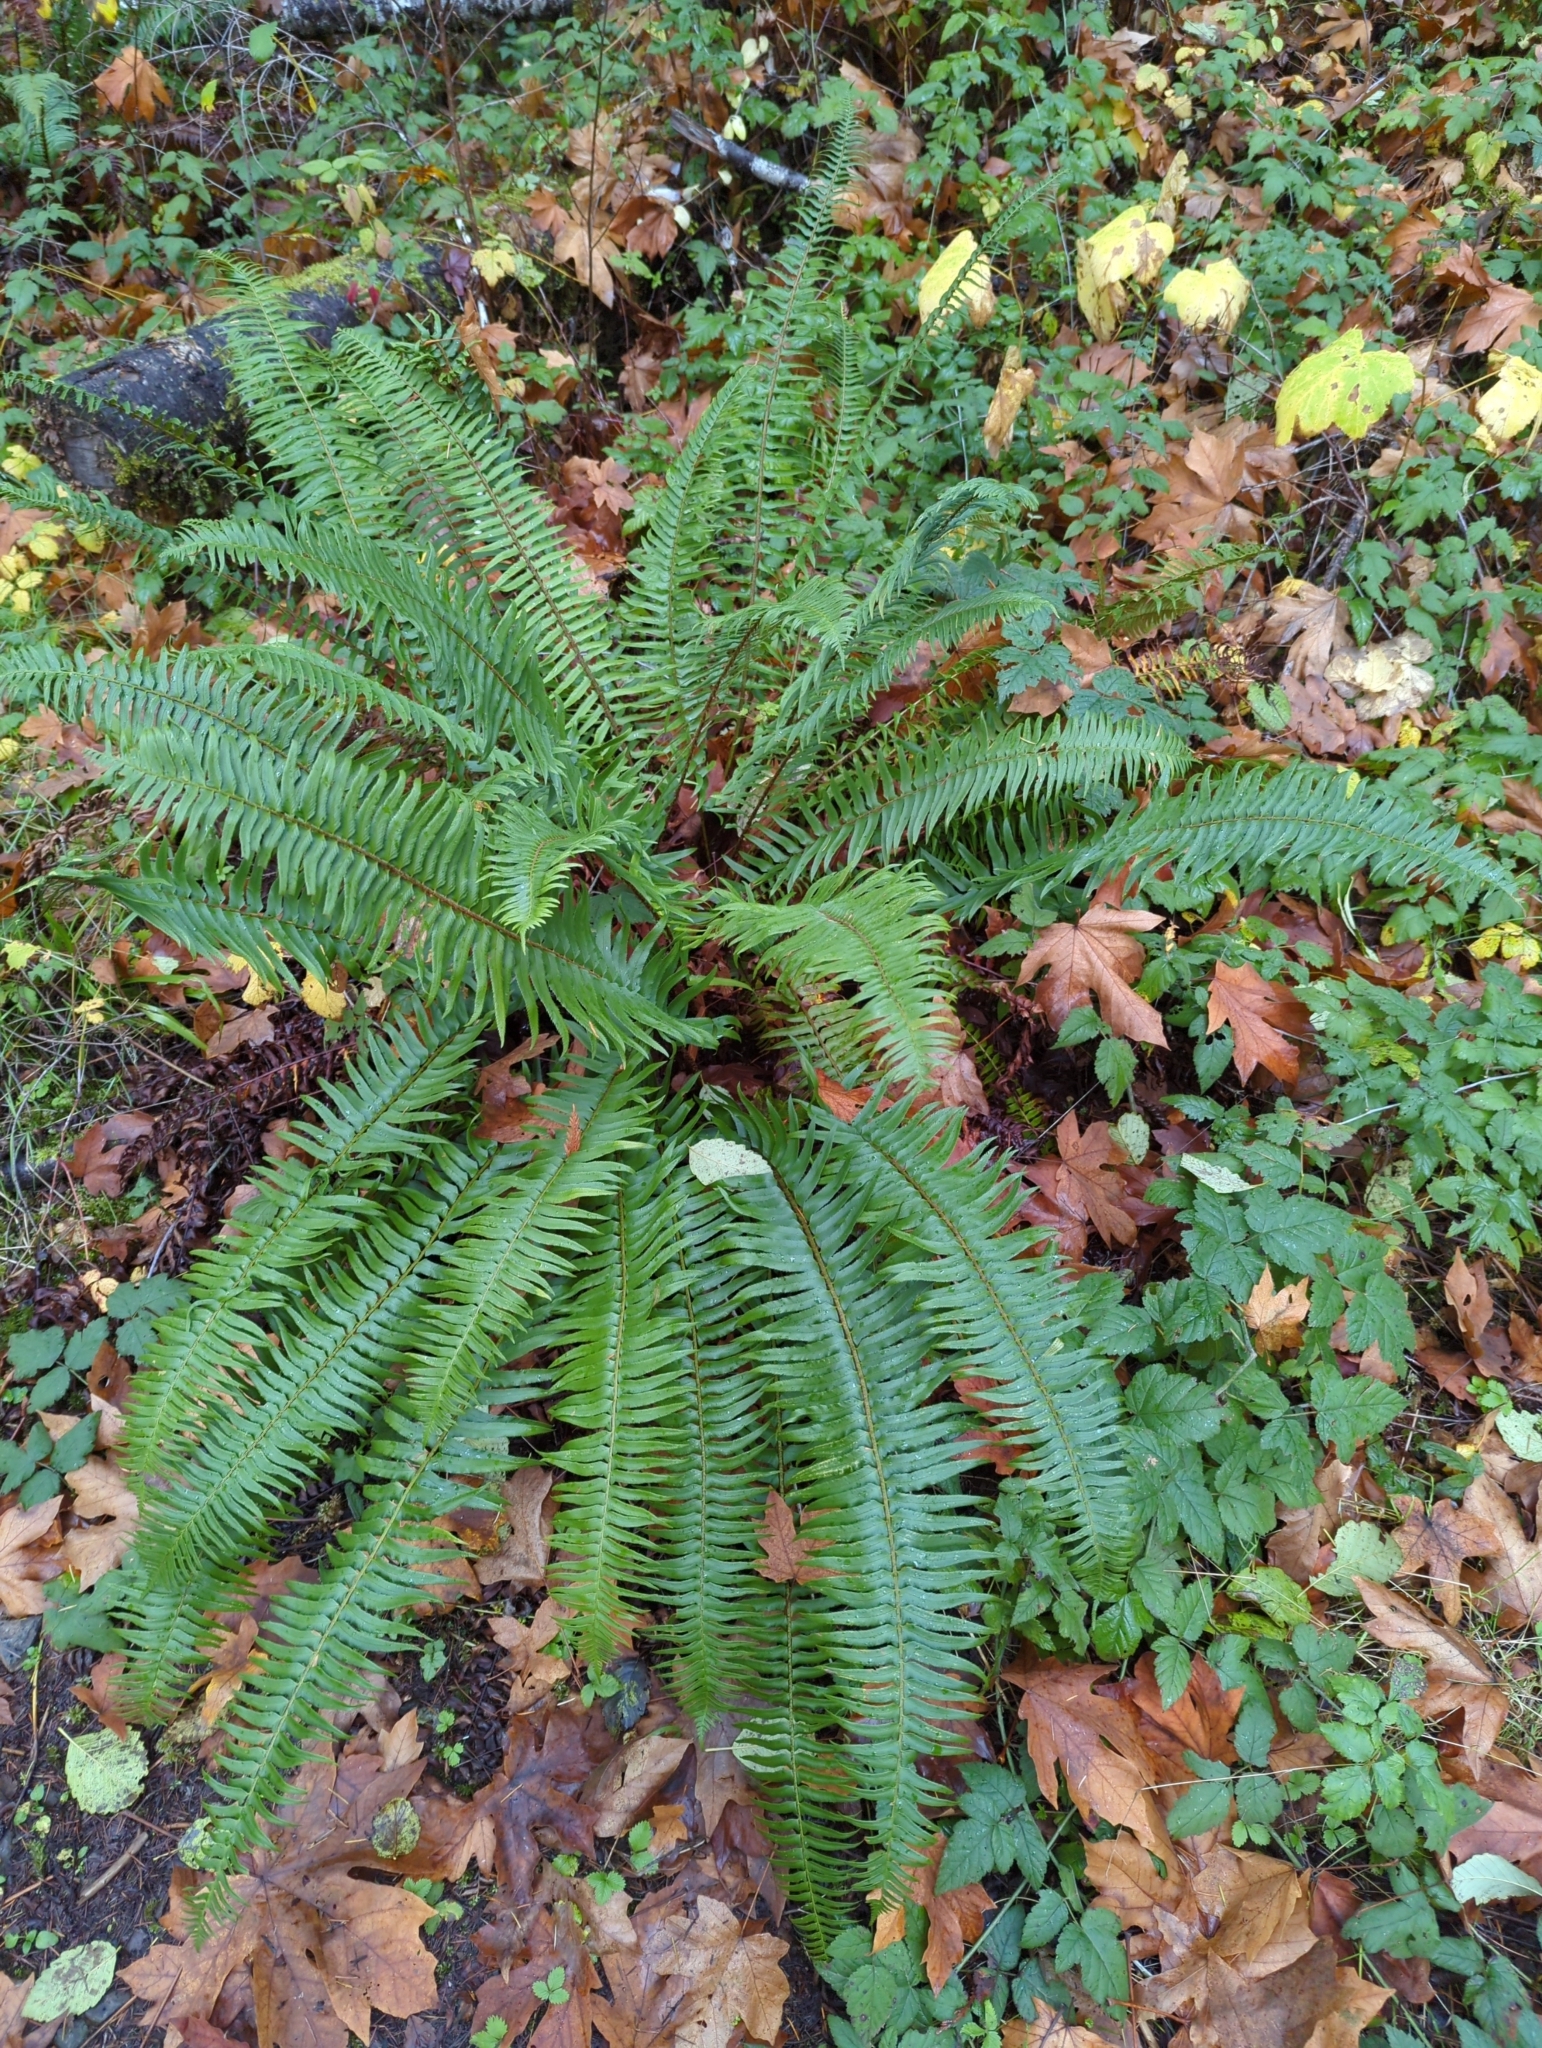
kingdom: Plantae
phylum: Tracheophyta
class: Polypodiopsida
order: Polypodiales
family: Dryopteridaceae
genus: Polystichum
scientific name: Polystichum munitum
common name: Western sword-fern
